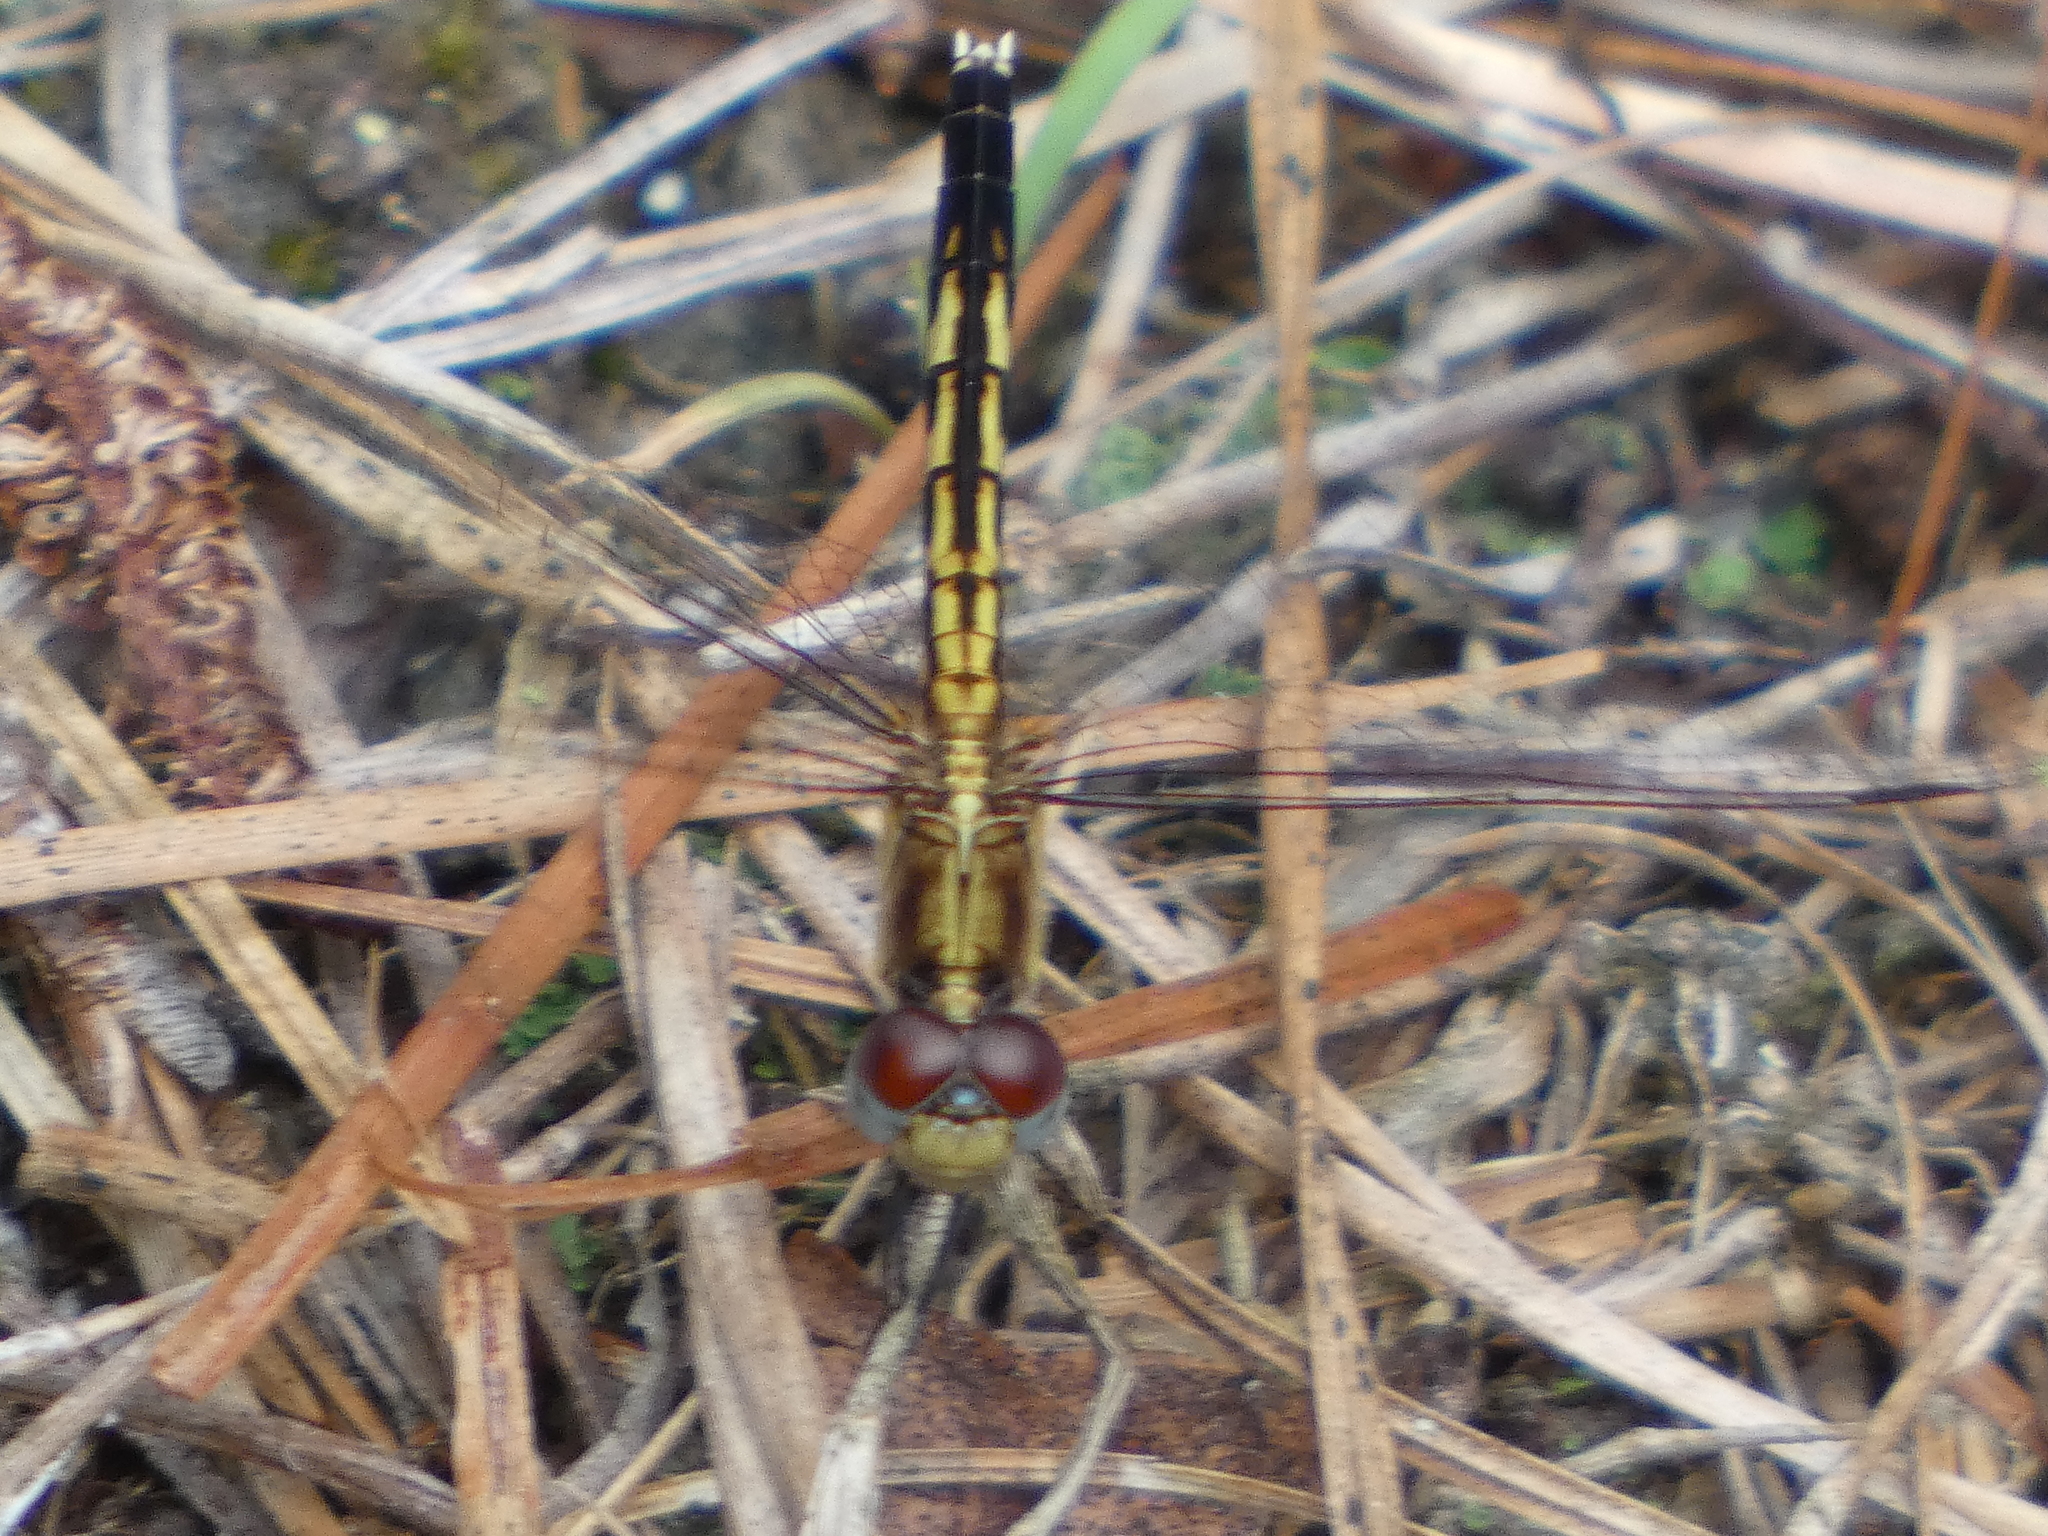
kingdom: Animalia
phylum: Arthropoda
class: Insecta
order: Odonata
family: Libellulidae
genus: Erythrodiplax
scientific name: Erythrodiplax minuscula
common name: Little blue dragonlet
